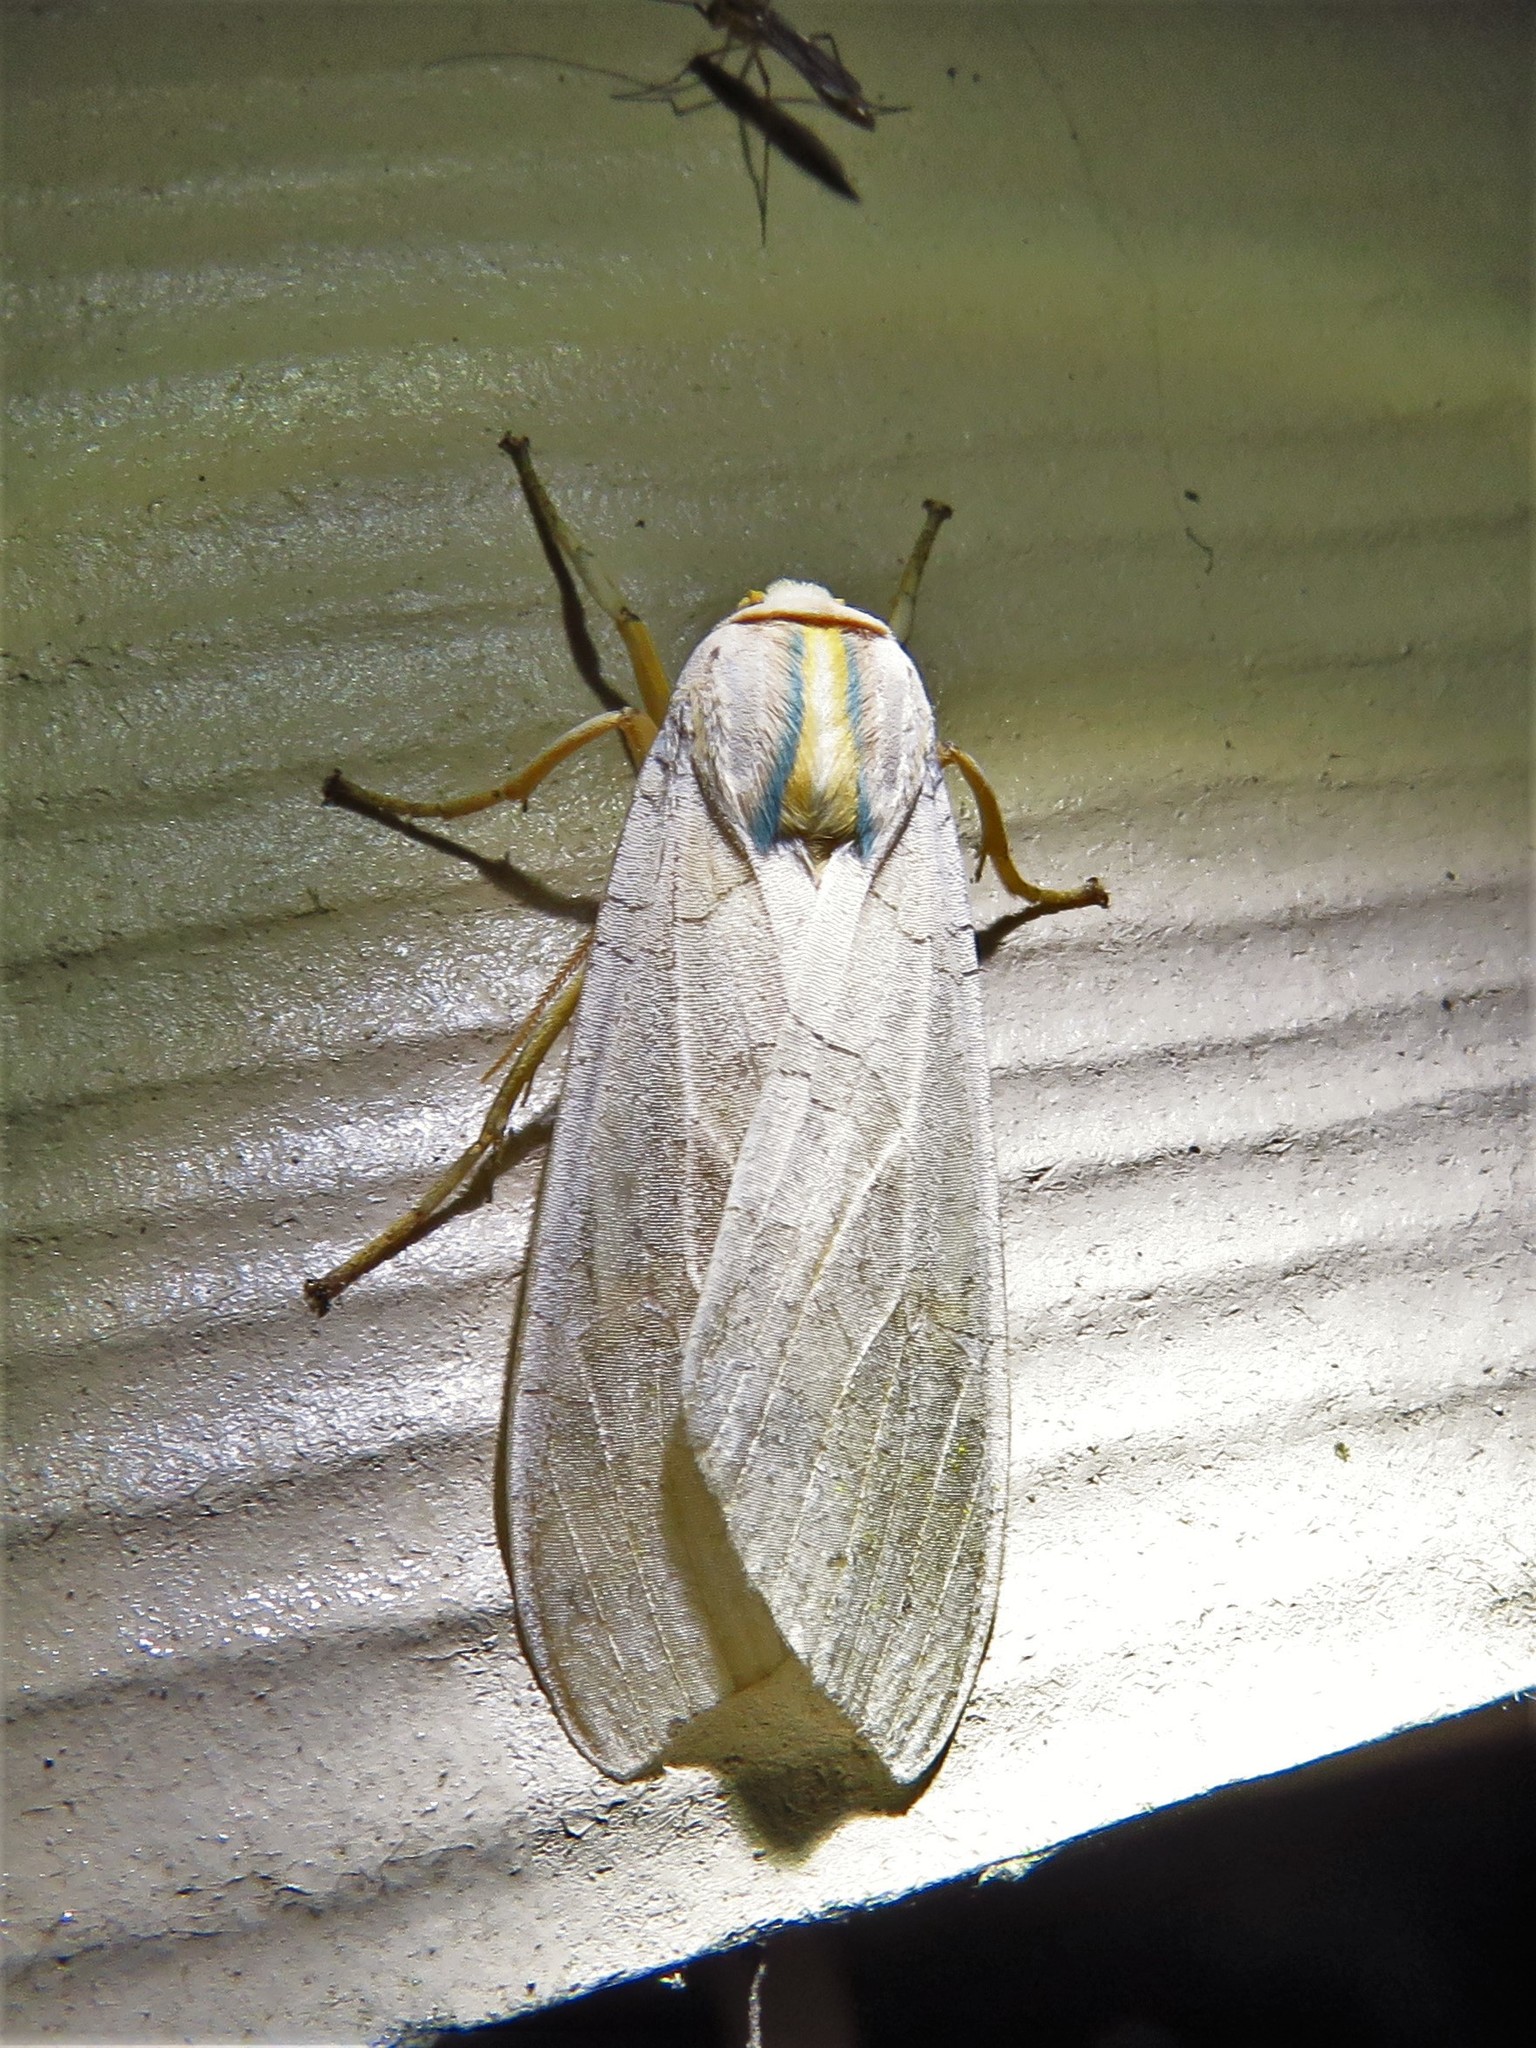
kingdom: Animalia
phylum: Arthropoda
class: Insecta
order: Lepidoptera
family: Erebidae
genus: Halysidota
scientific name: Halysidota
